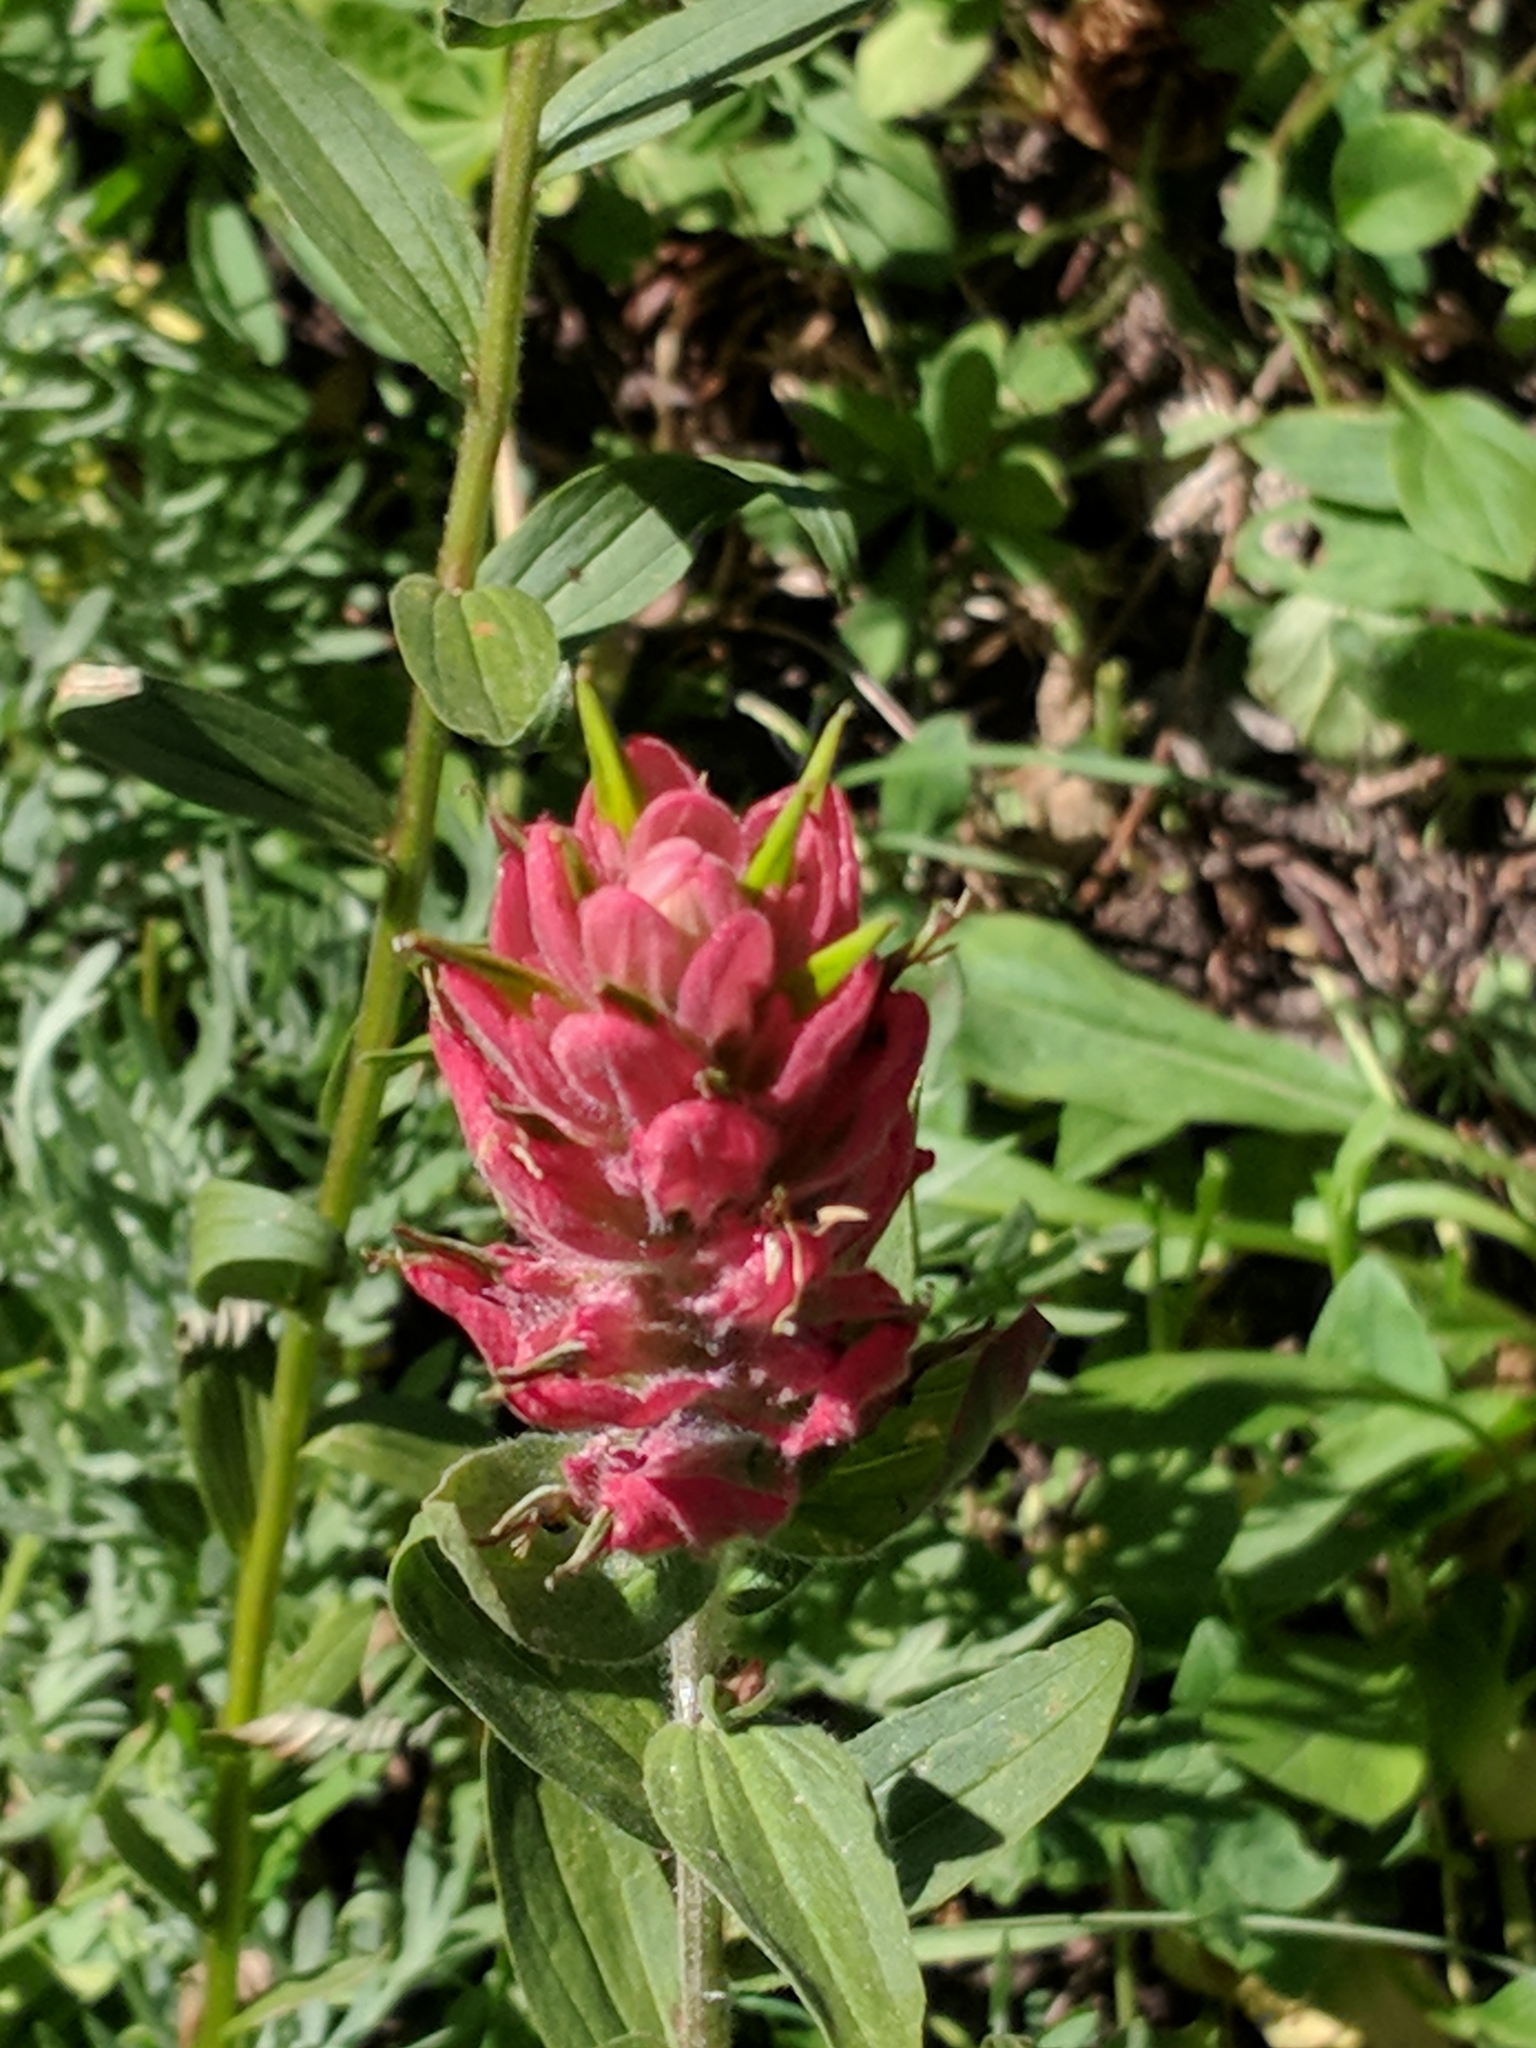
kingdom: Plantae
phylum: Tracheophyta
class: Magnoliopsida
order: Lamiales
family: Orobanchaceae
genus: Castilleja
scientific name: Castilleja rhexifolia
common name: Rocky mountain paintbrush
